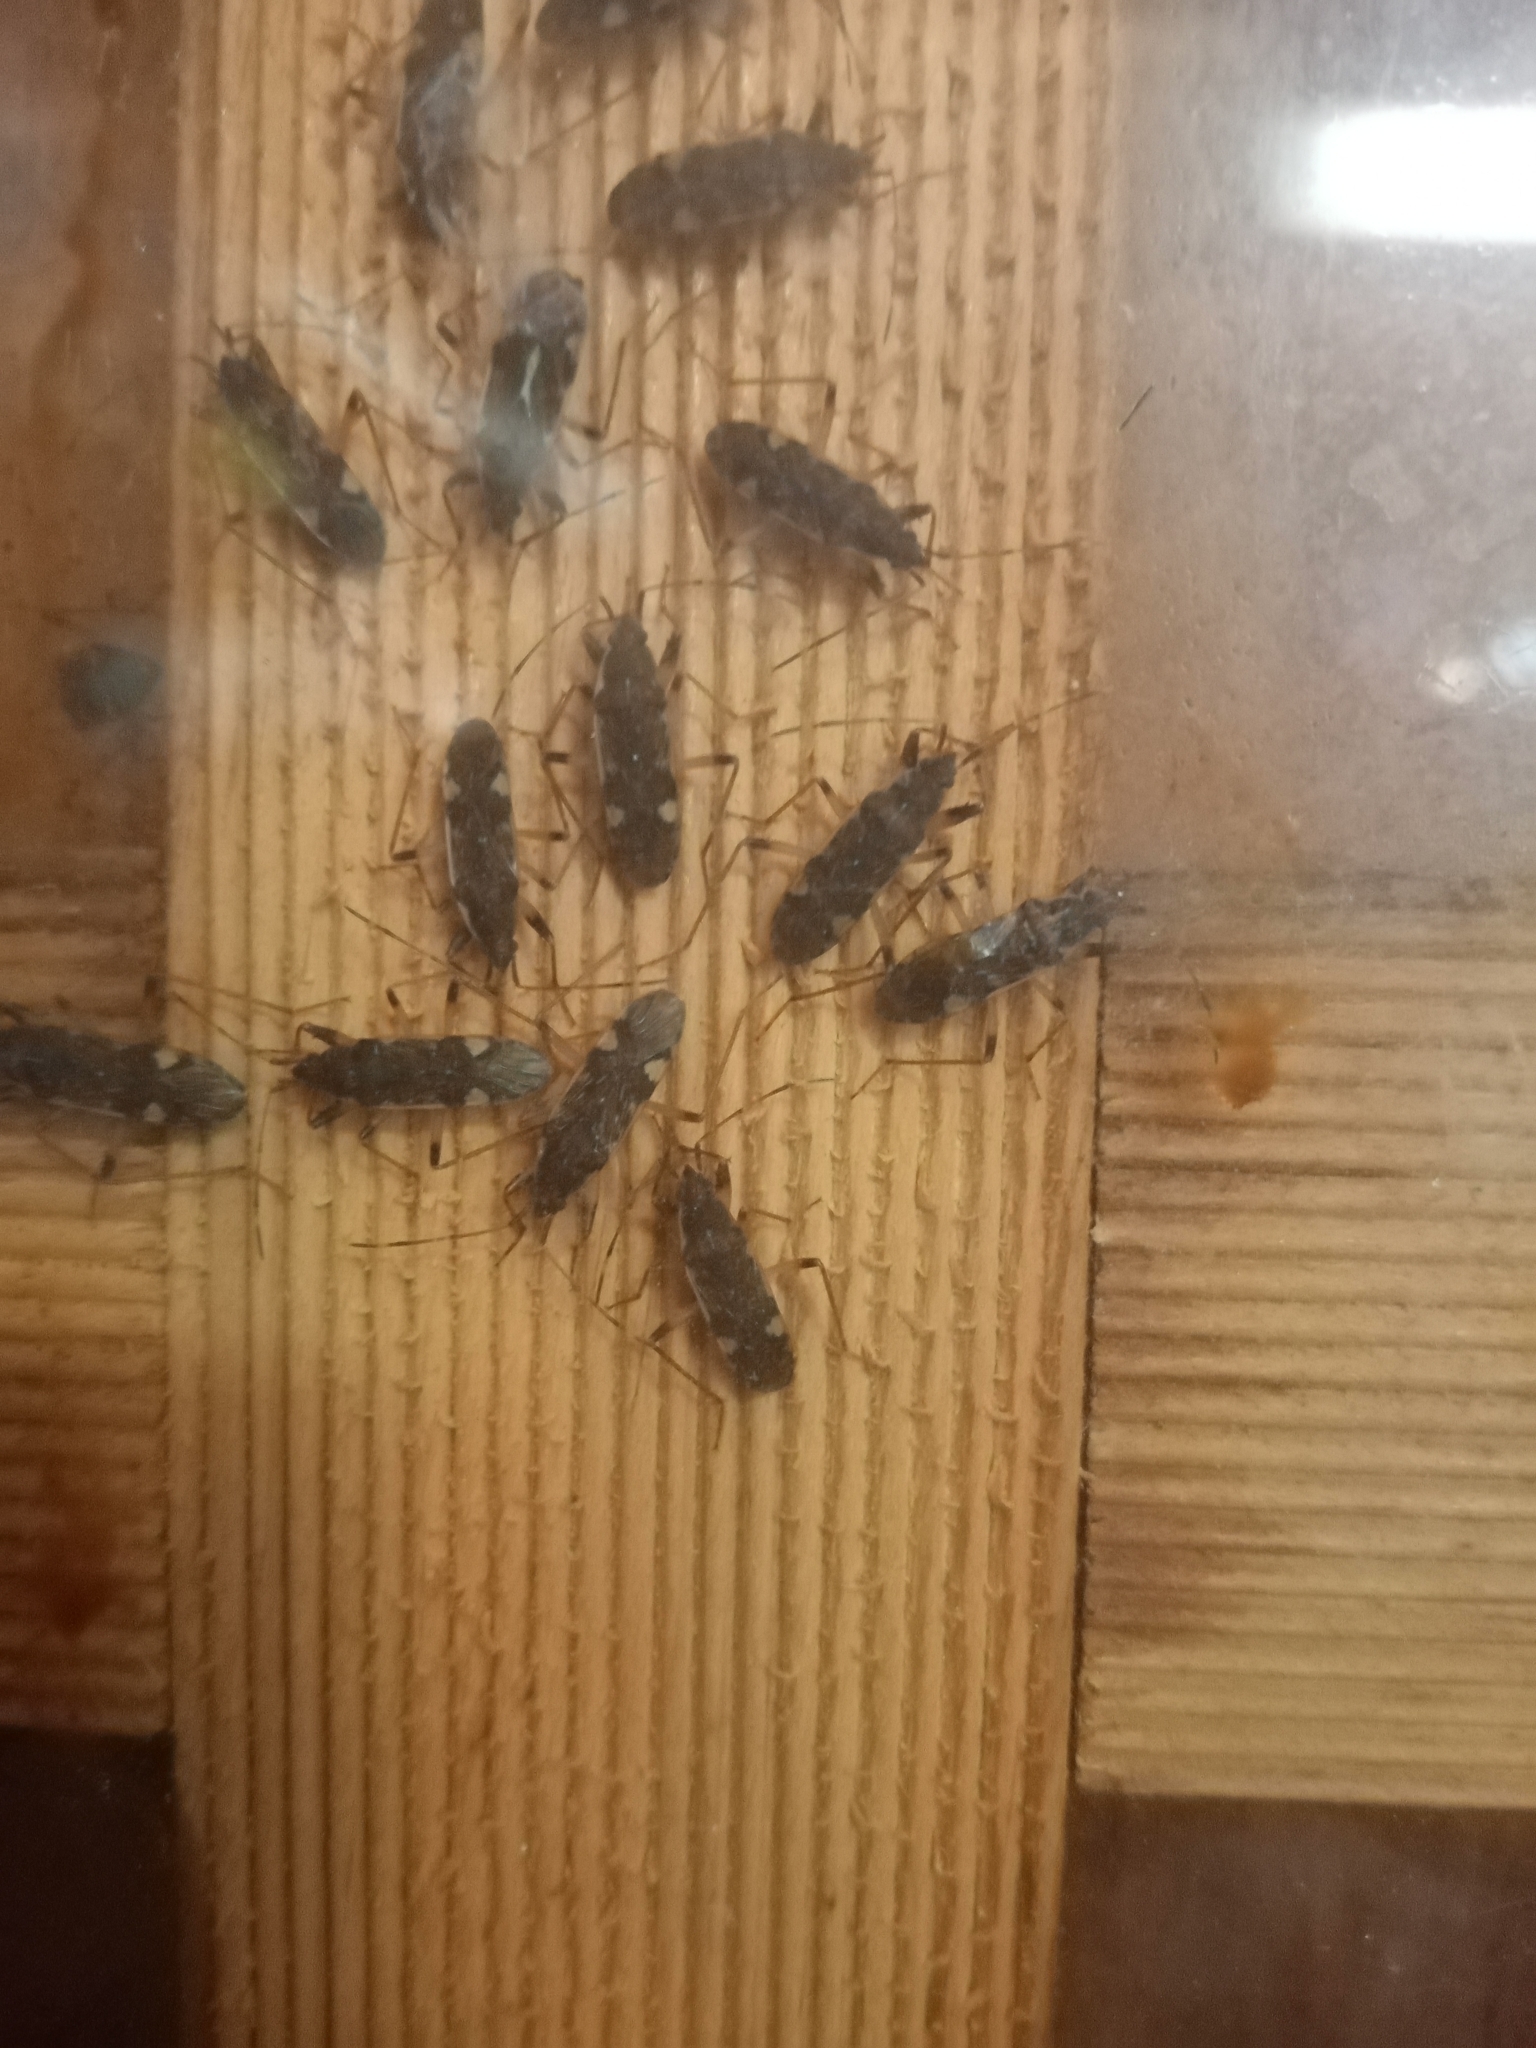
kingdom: Animalia
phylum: Arthropoda
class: Insecta
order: Hemiptera
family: Rhyparochromidae
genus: Dieuches
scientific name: Dieuches armatipes
